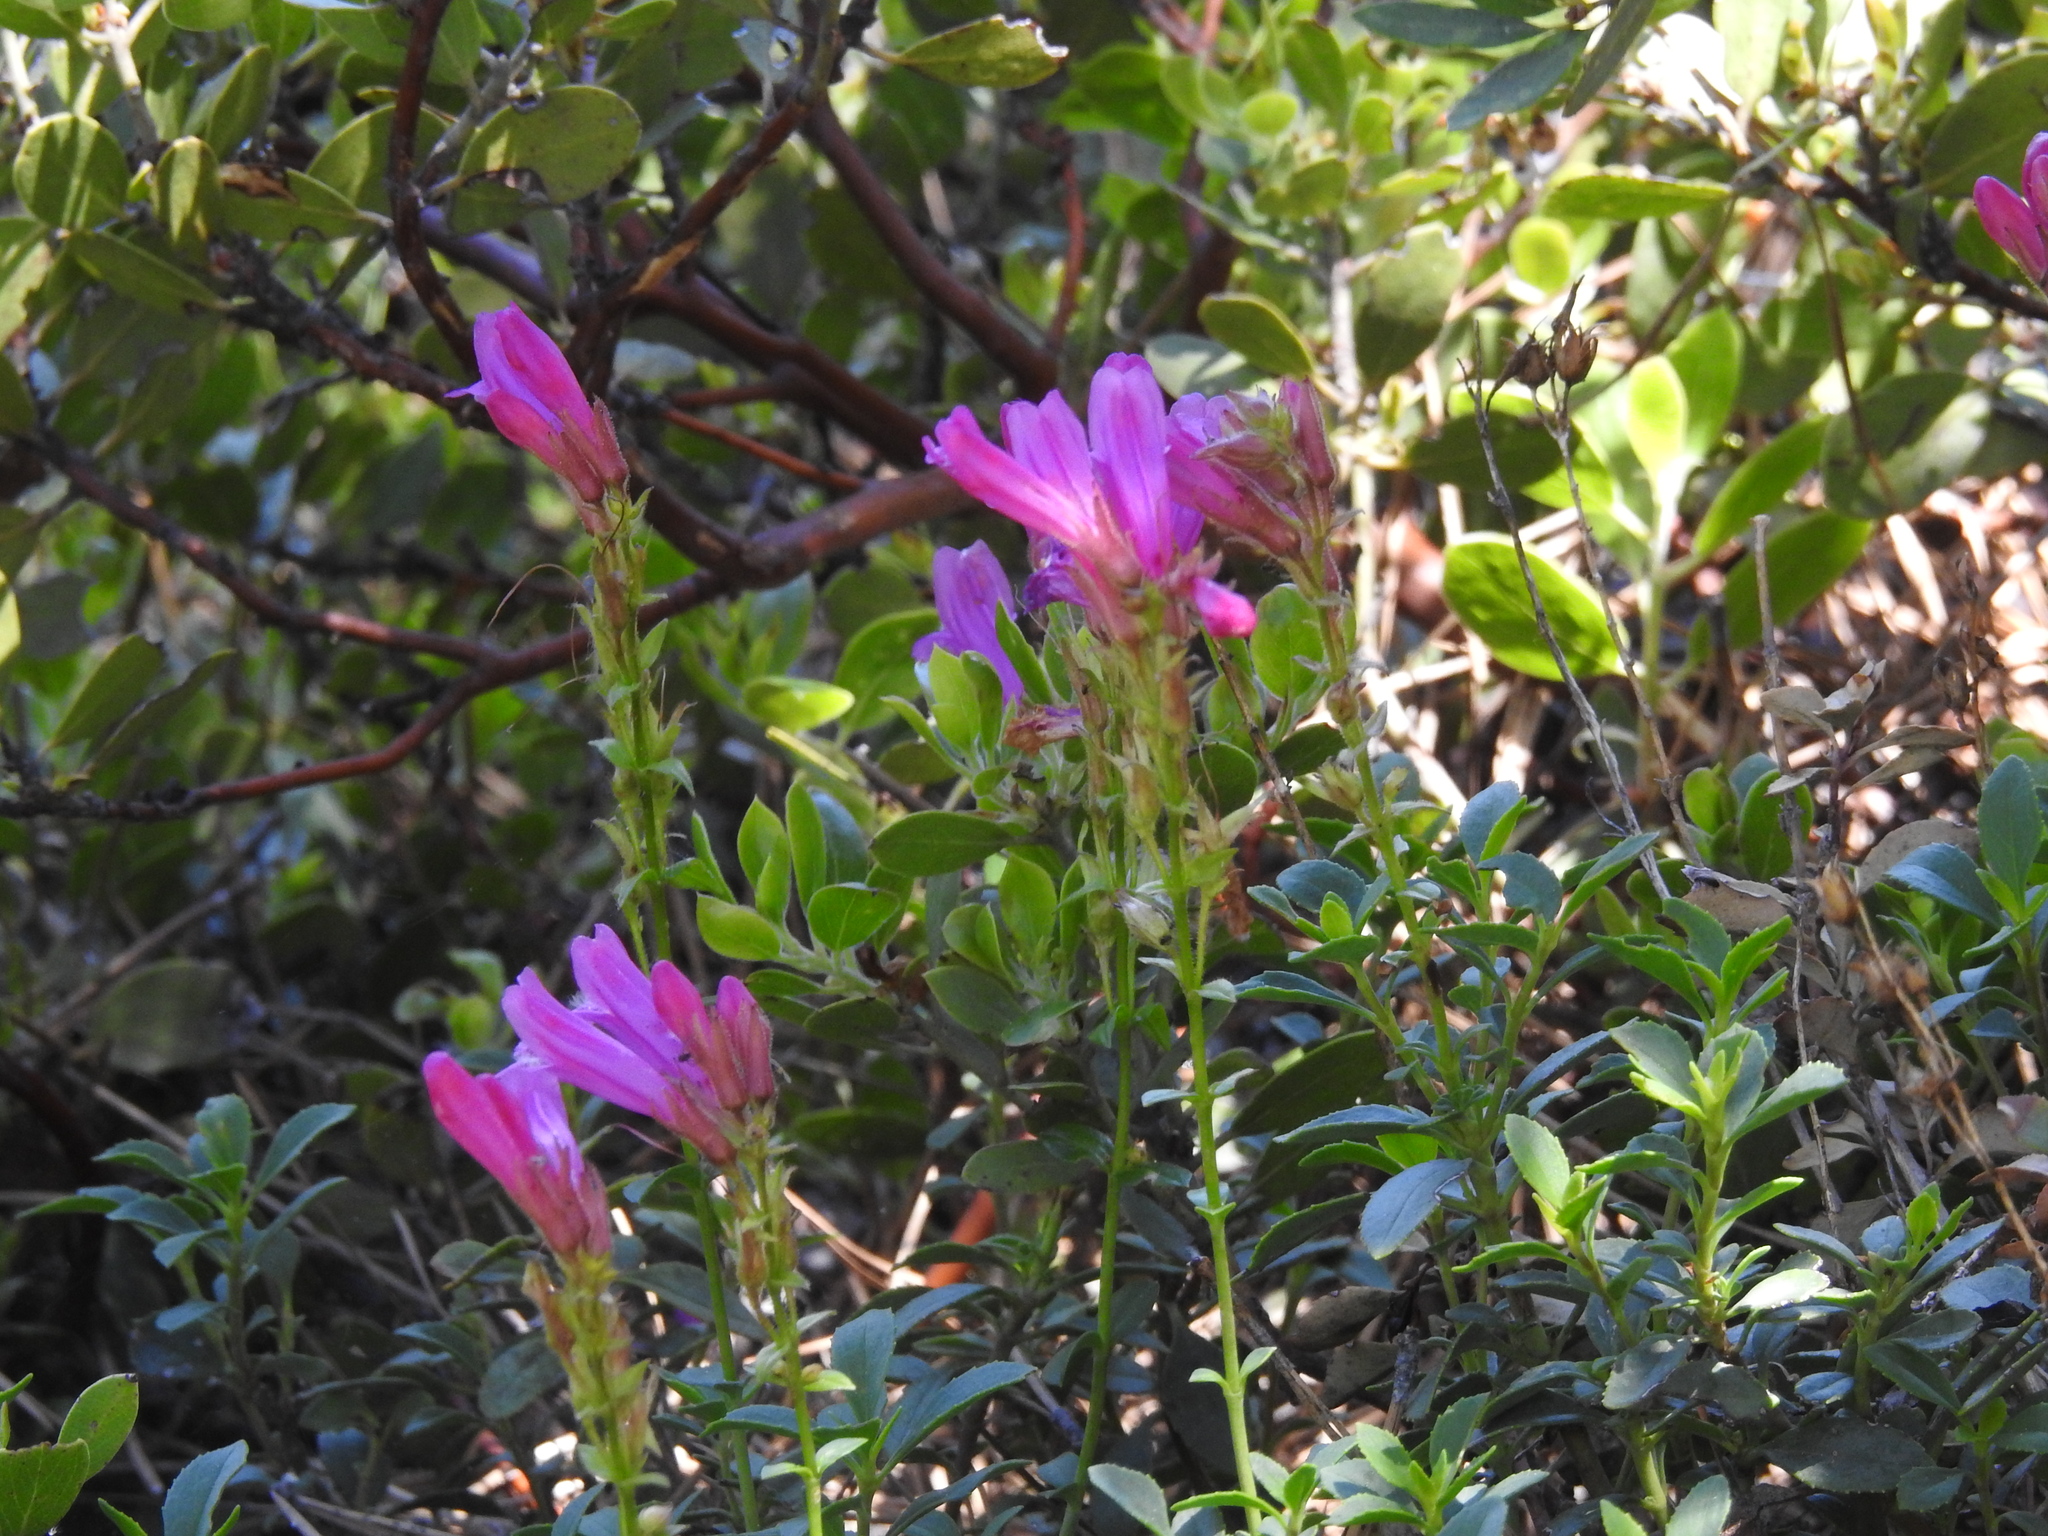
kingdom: Plantae
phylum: Tracheophyta
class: Magnoliopsida
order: Lamiales
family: Plantaginaceae
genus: Penstemon
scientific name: Penstemon newberryi
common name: Mountain-pride
